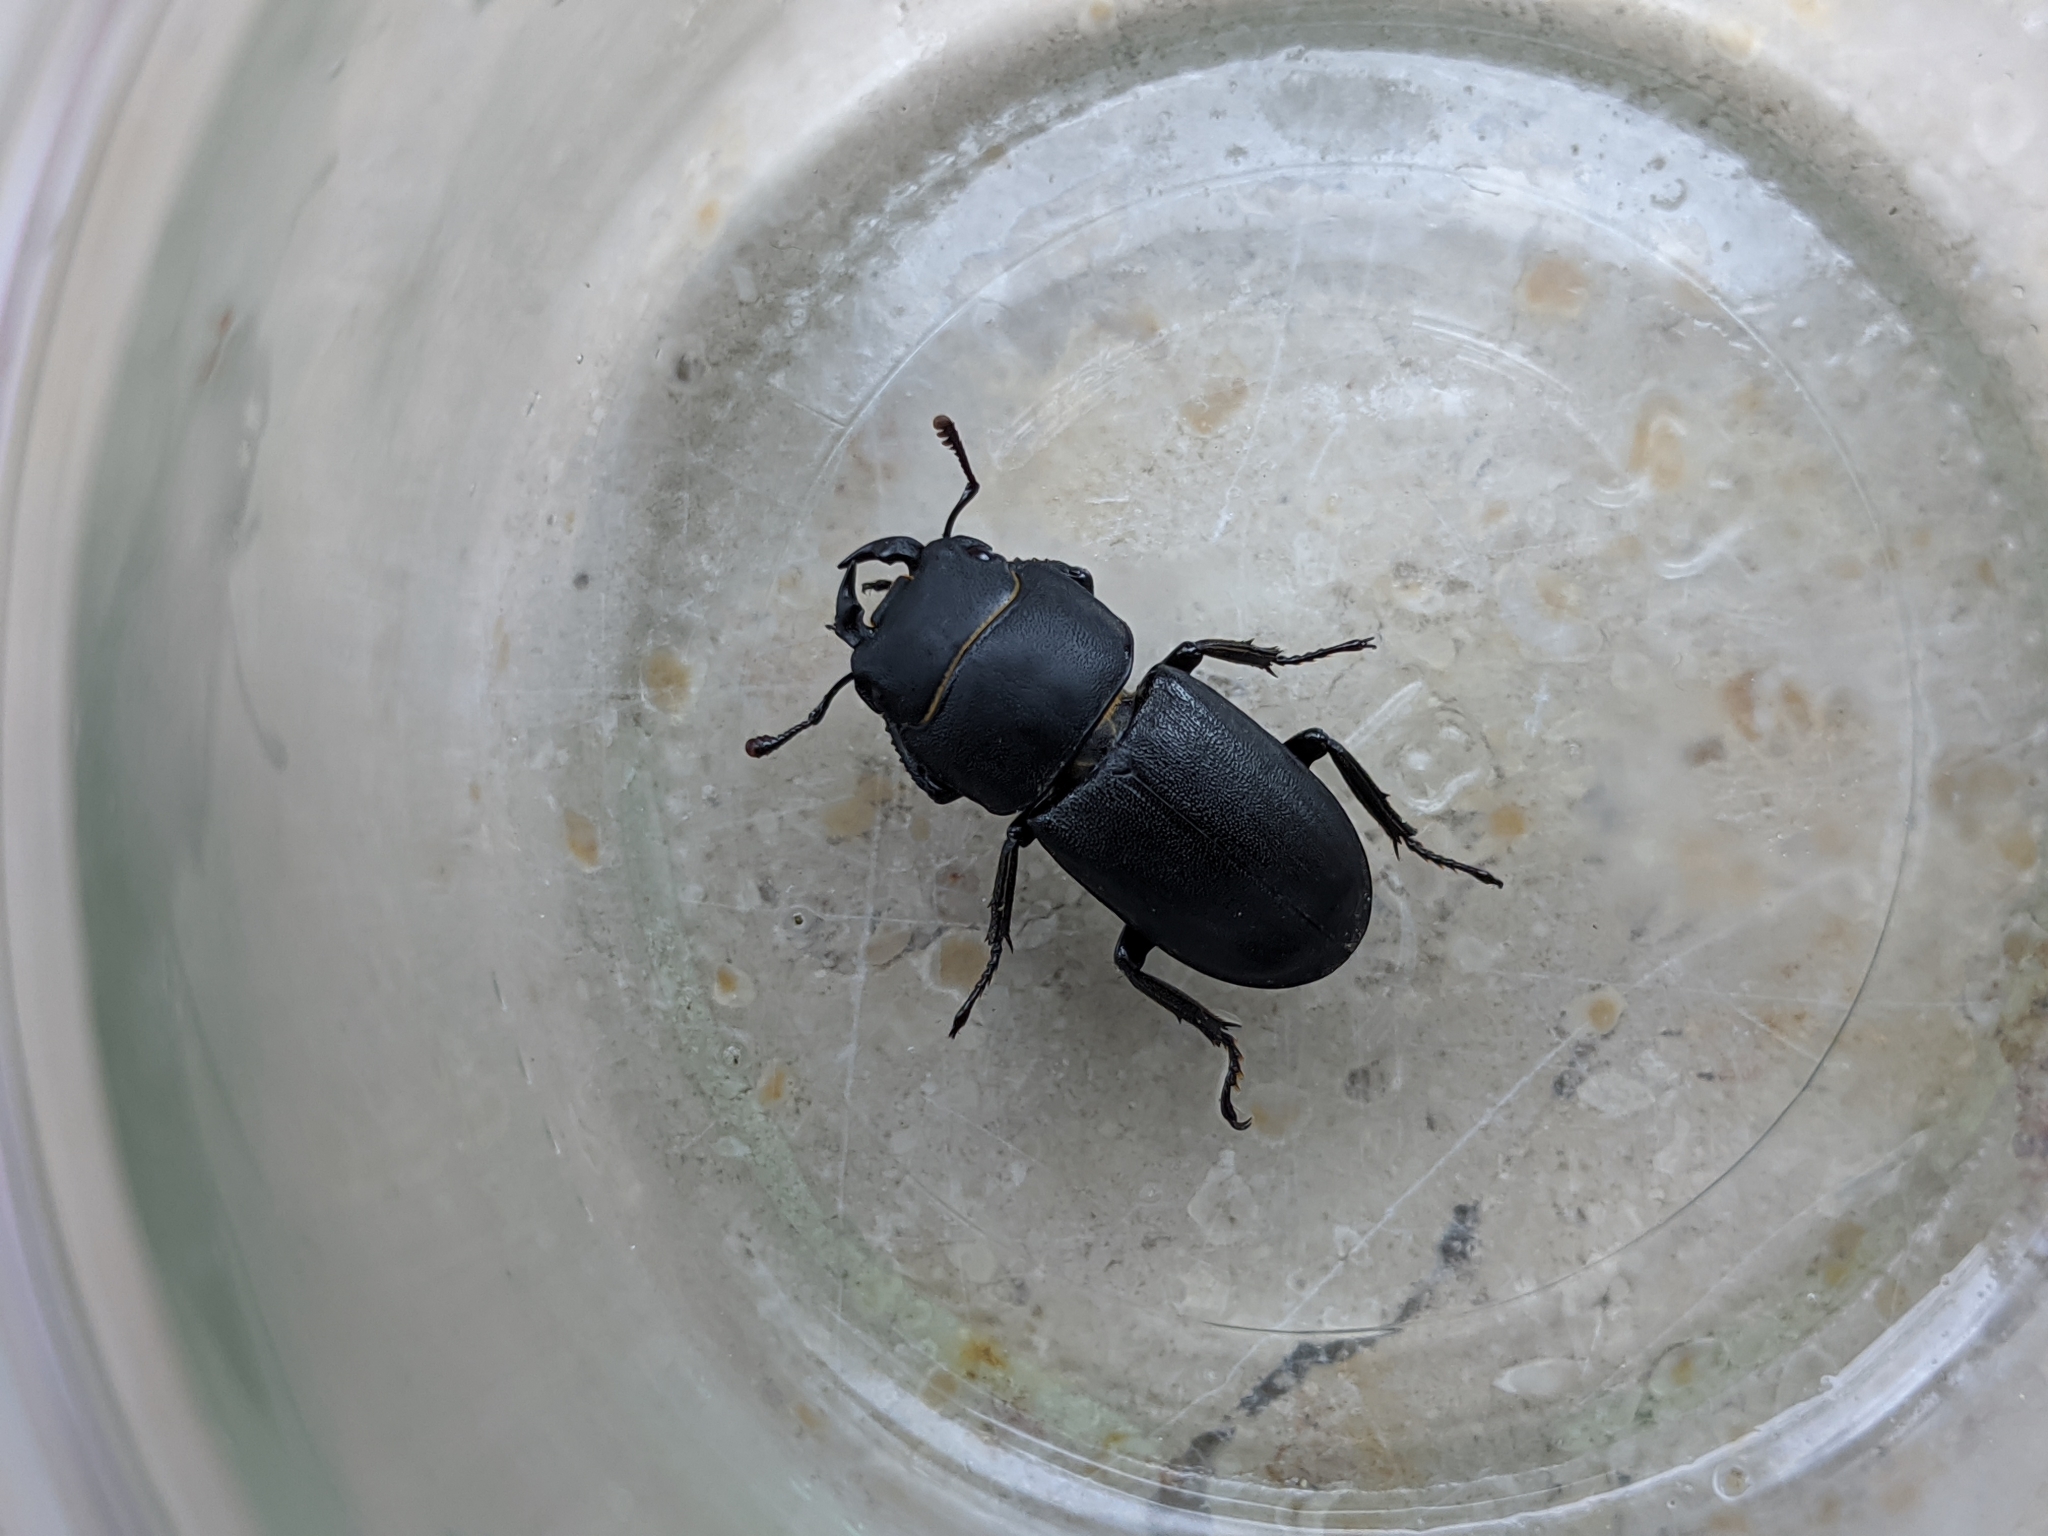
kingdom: Animalia
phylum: Arthropoda
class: Insecta
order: Coleoptera
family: Lucanidae
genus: Dorcus
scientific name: Dorcus parallelipipedus
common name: Lesser stag beetle
